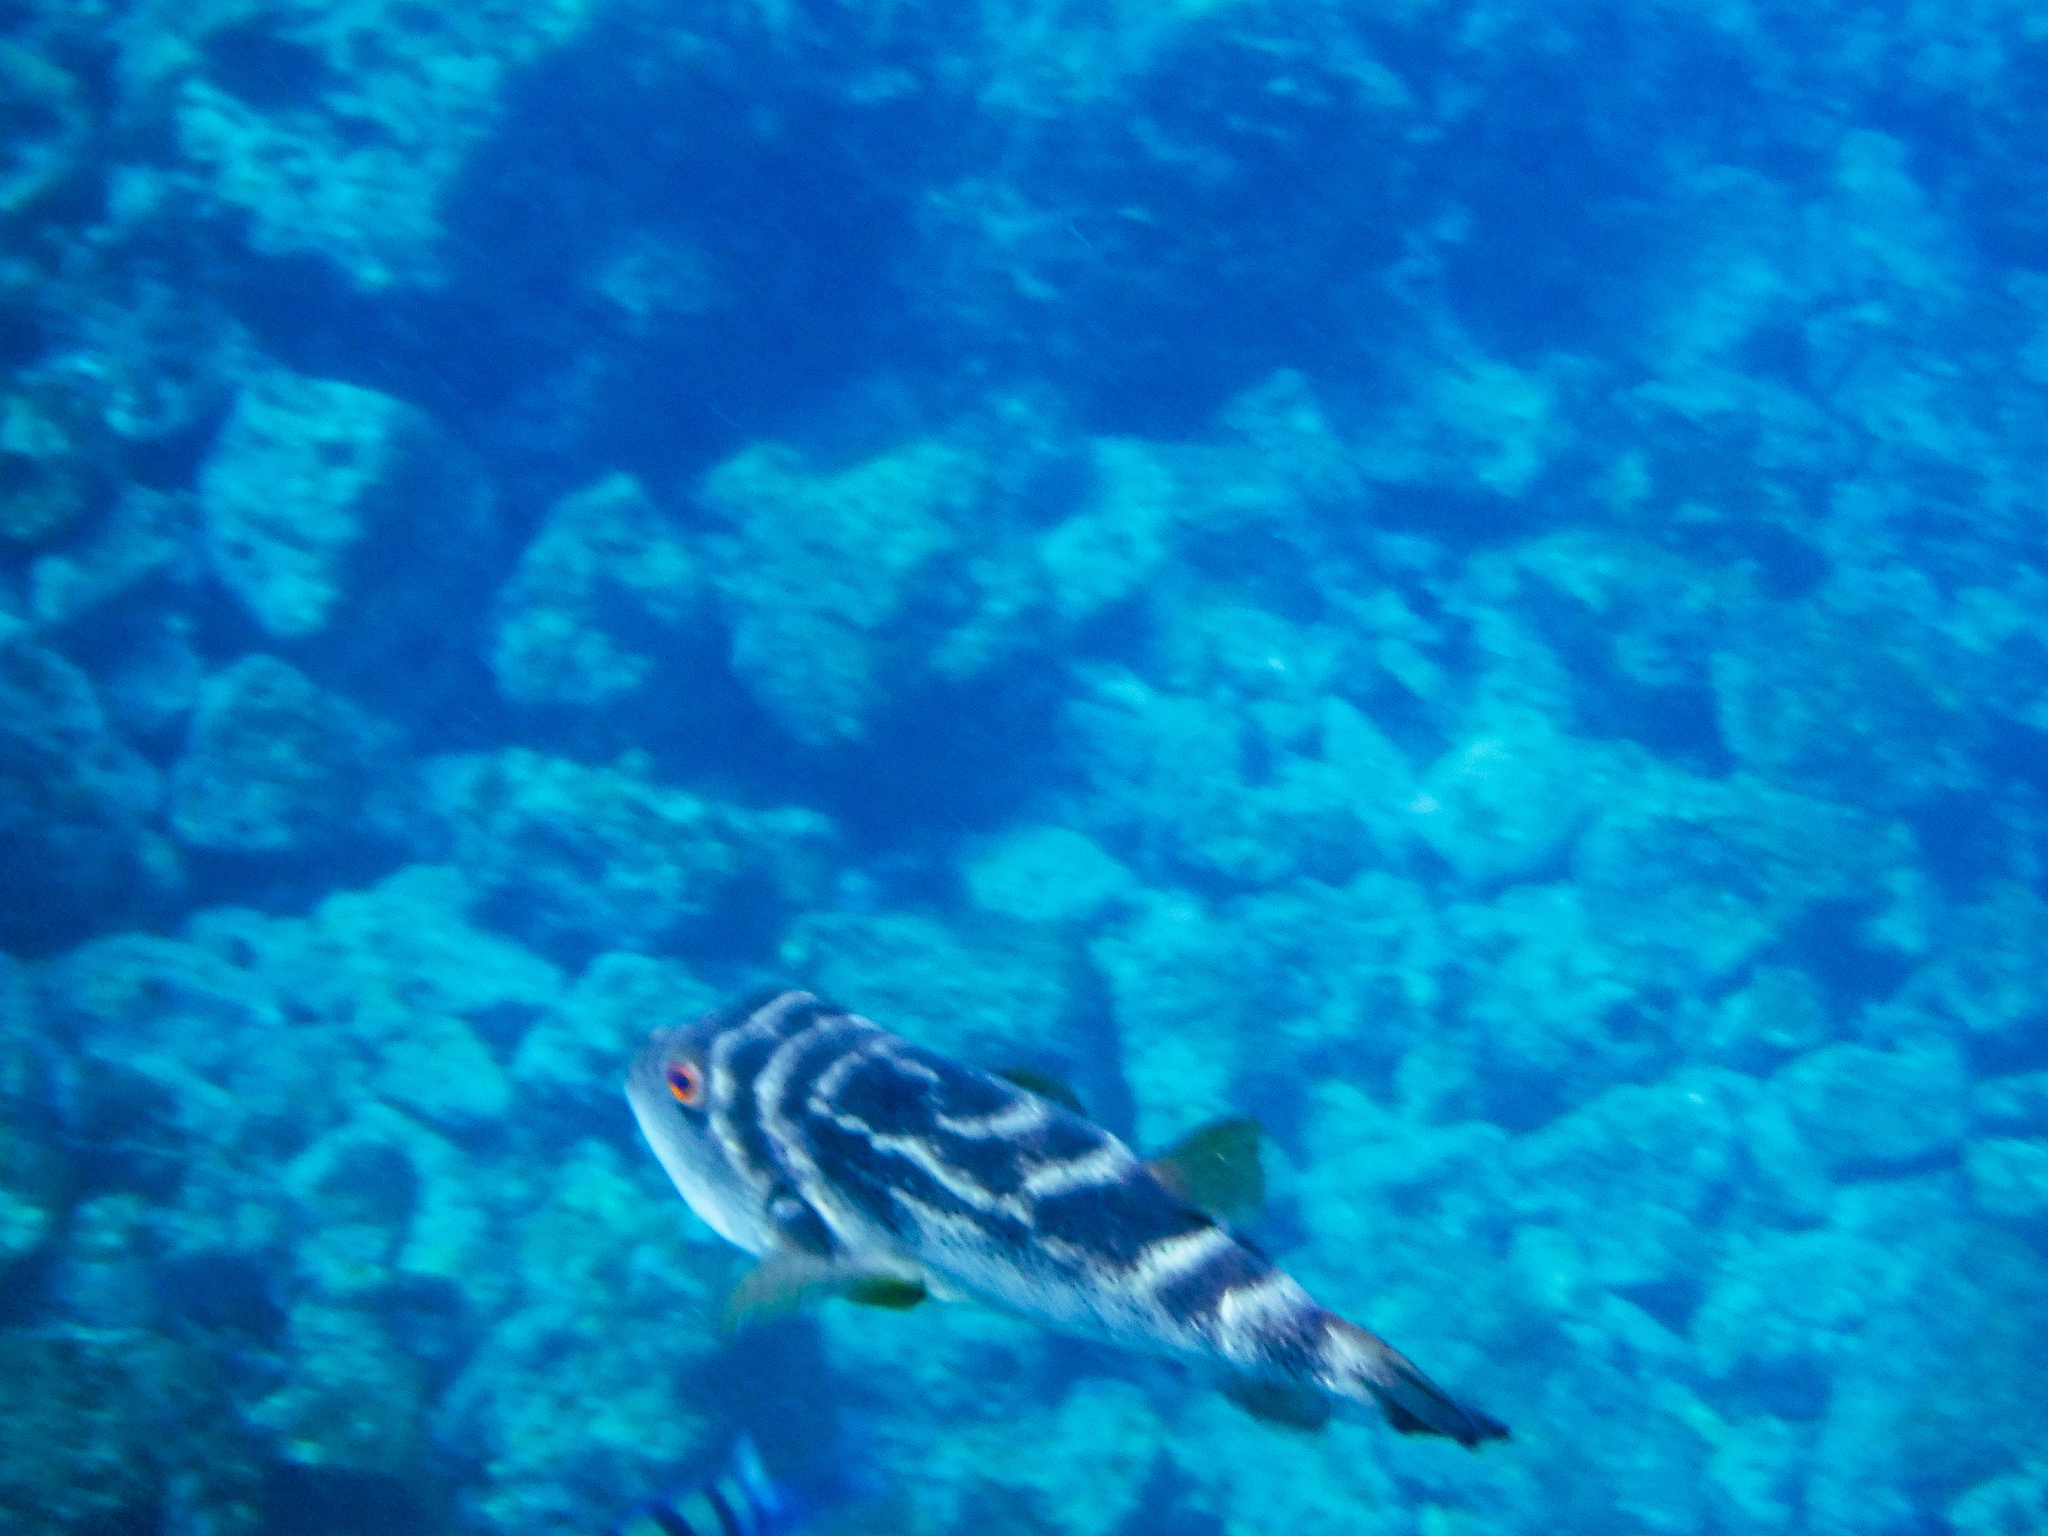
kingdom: Animalia
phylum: Chordata
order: Tetraodontiformes
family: Tetraodontidae
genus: Sphoeroides
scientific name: Sphoeroides annulatus
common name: Bullseye puffer
